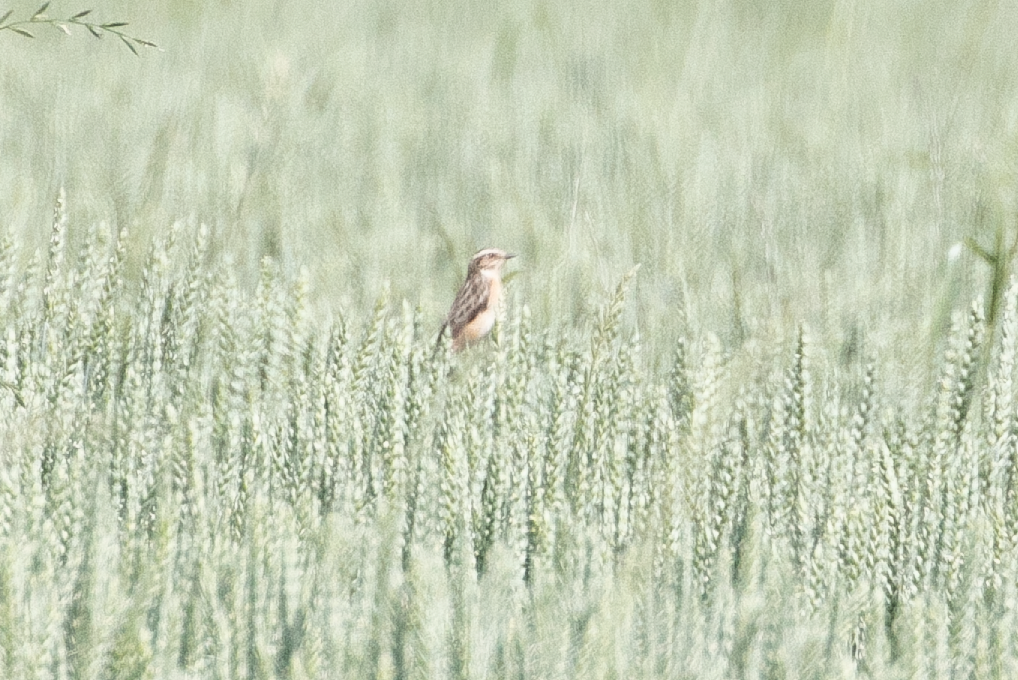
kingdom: Animalia
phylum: Chordata
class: Aves
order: Passeriformes
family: Muscicapidae
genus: Saxicola
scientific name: Saxicola rubetra
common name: Whinchat
